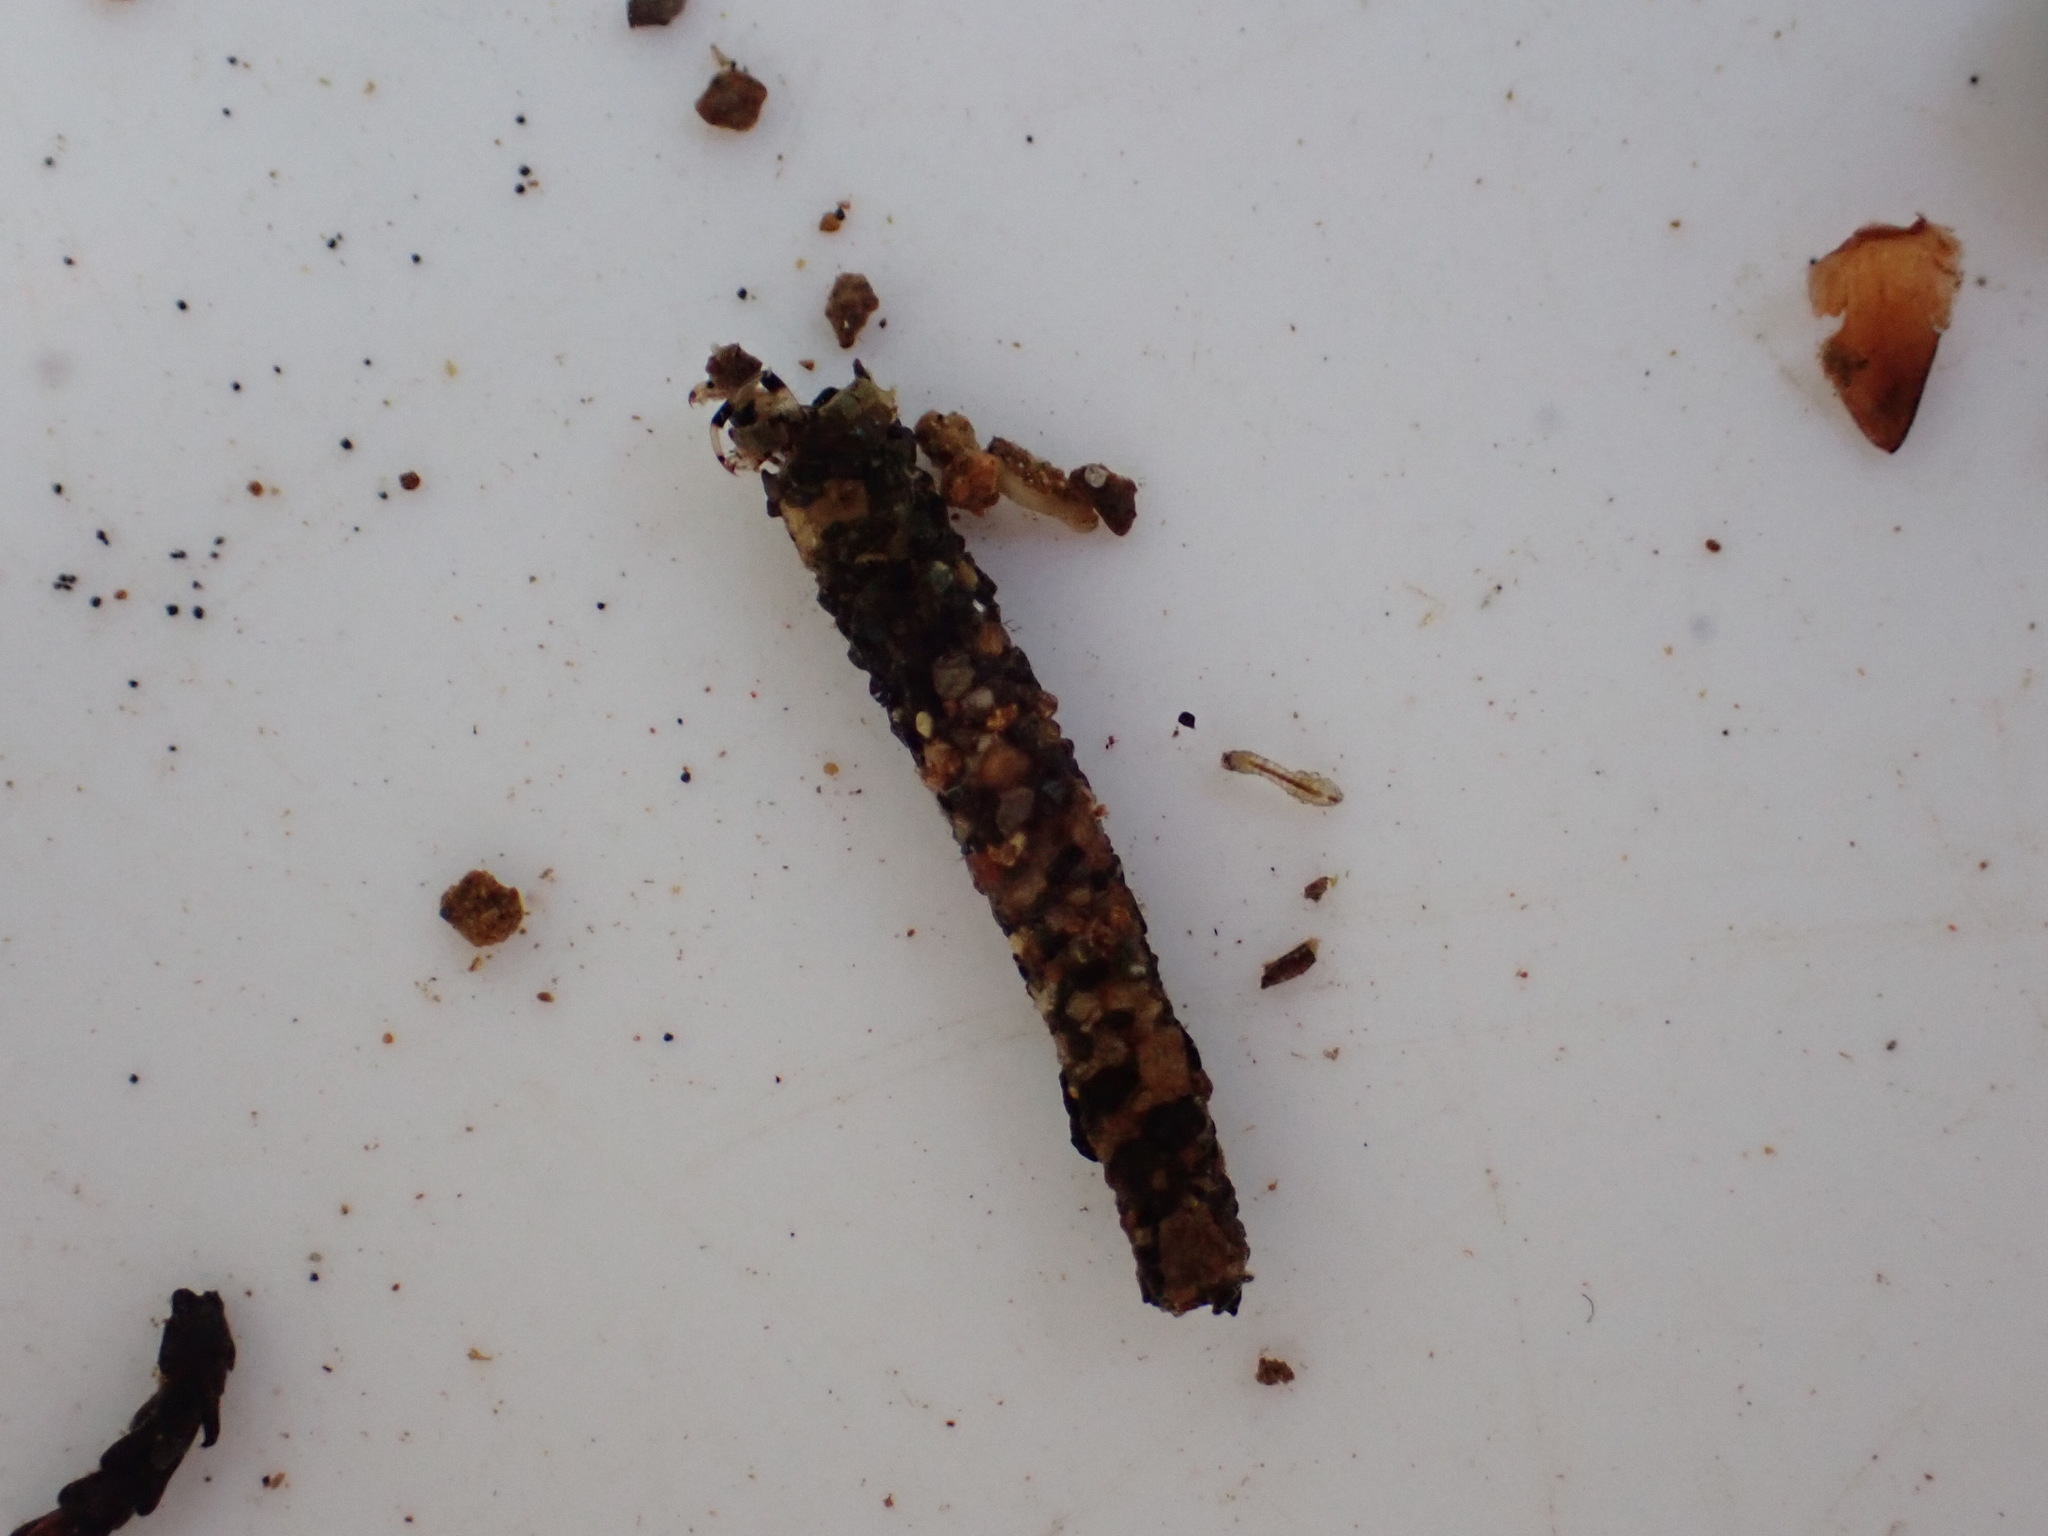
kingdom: Animalia
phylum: Arthropoda
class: Insecta
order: Trichoptera
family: Leptoceridae
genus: Hudsonema
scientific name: Hudsonema amabile
